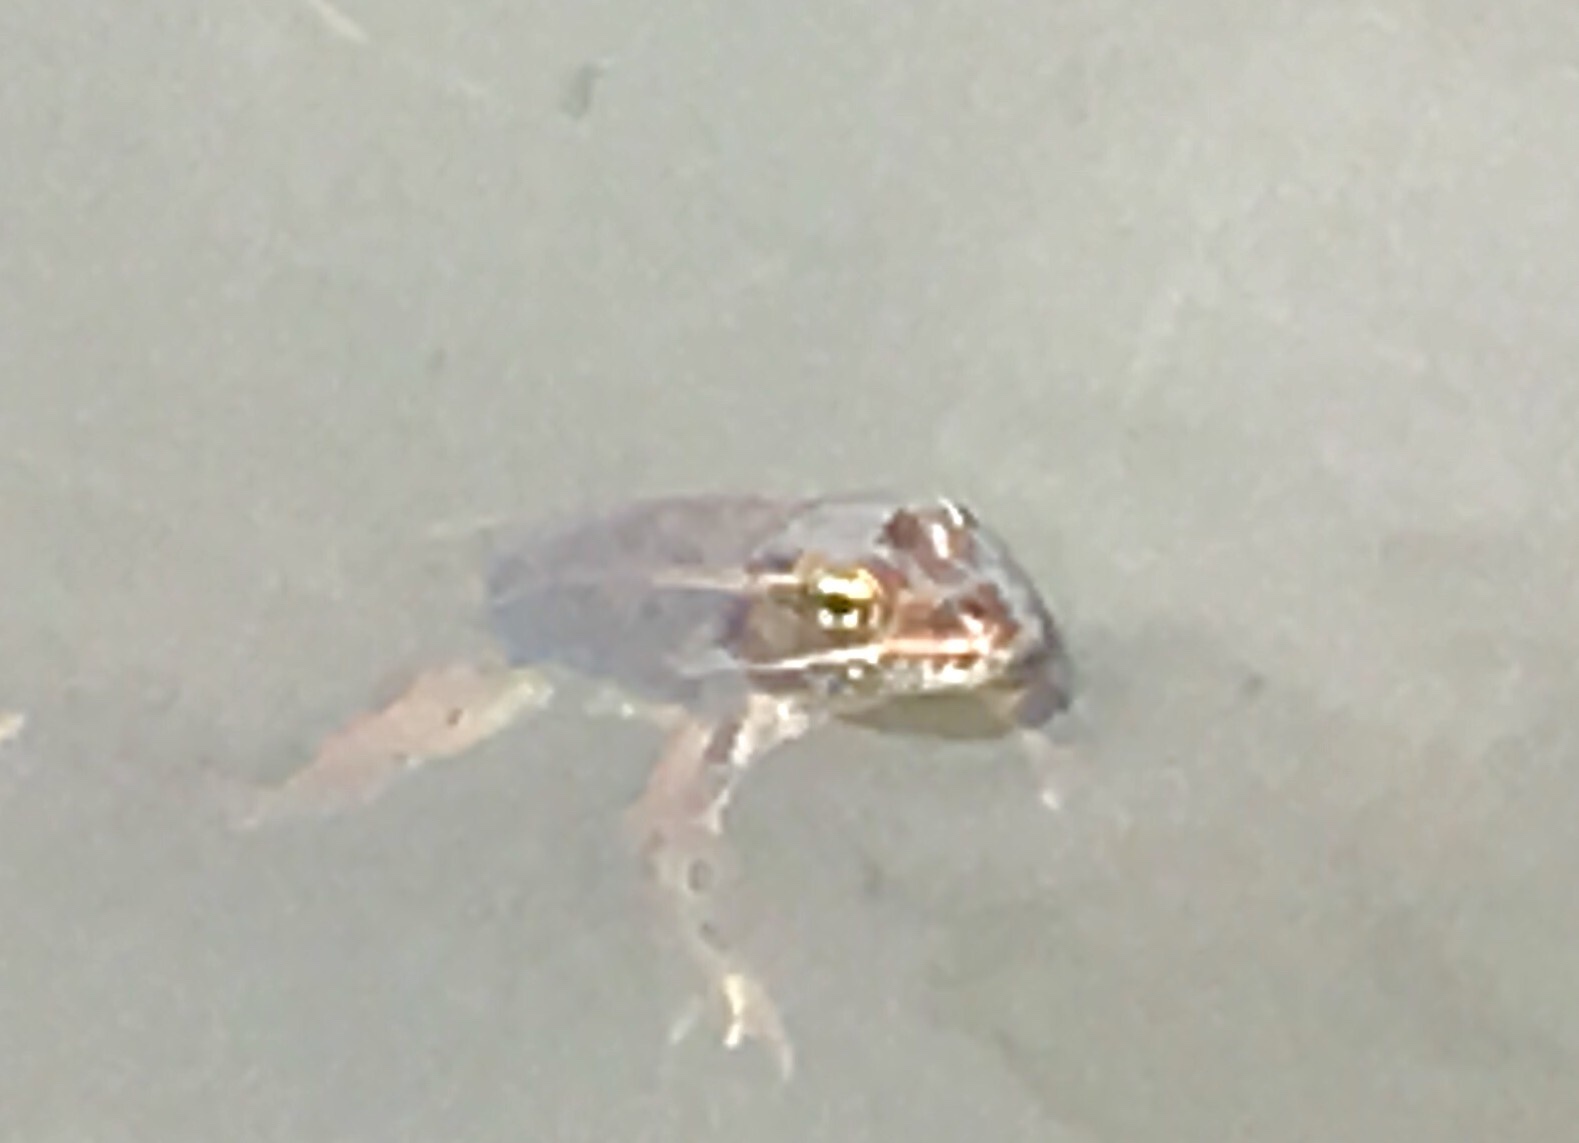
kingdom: Animalia
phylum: Chordata
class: Amphibia
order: Anura
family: Ranidae
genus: Lithobates
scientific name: Lithobates pipiens
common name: Northern leopard frog
